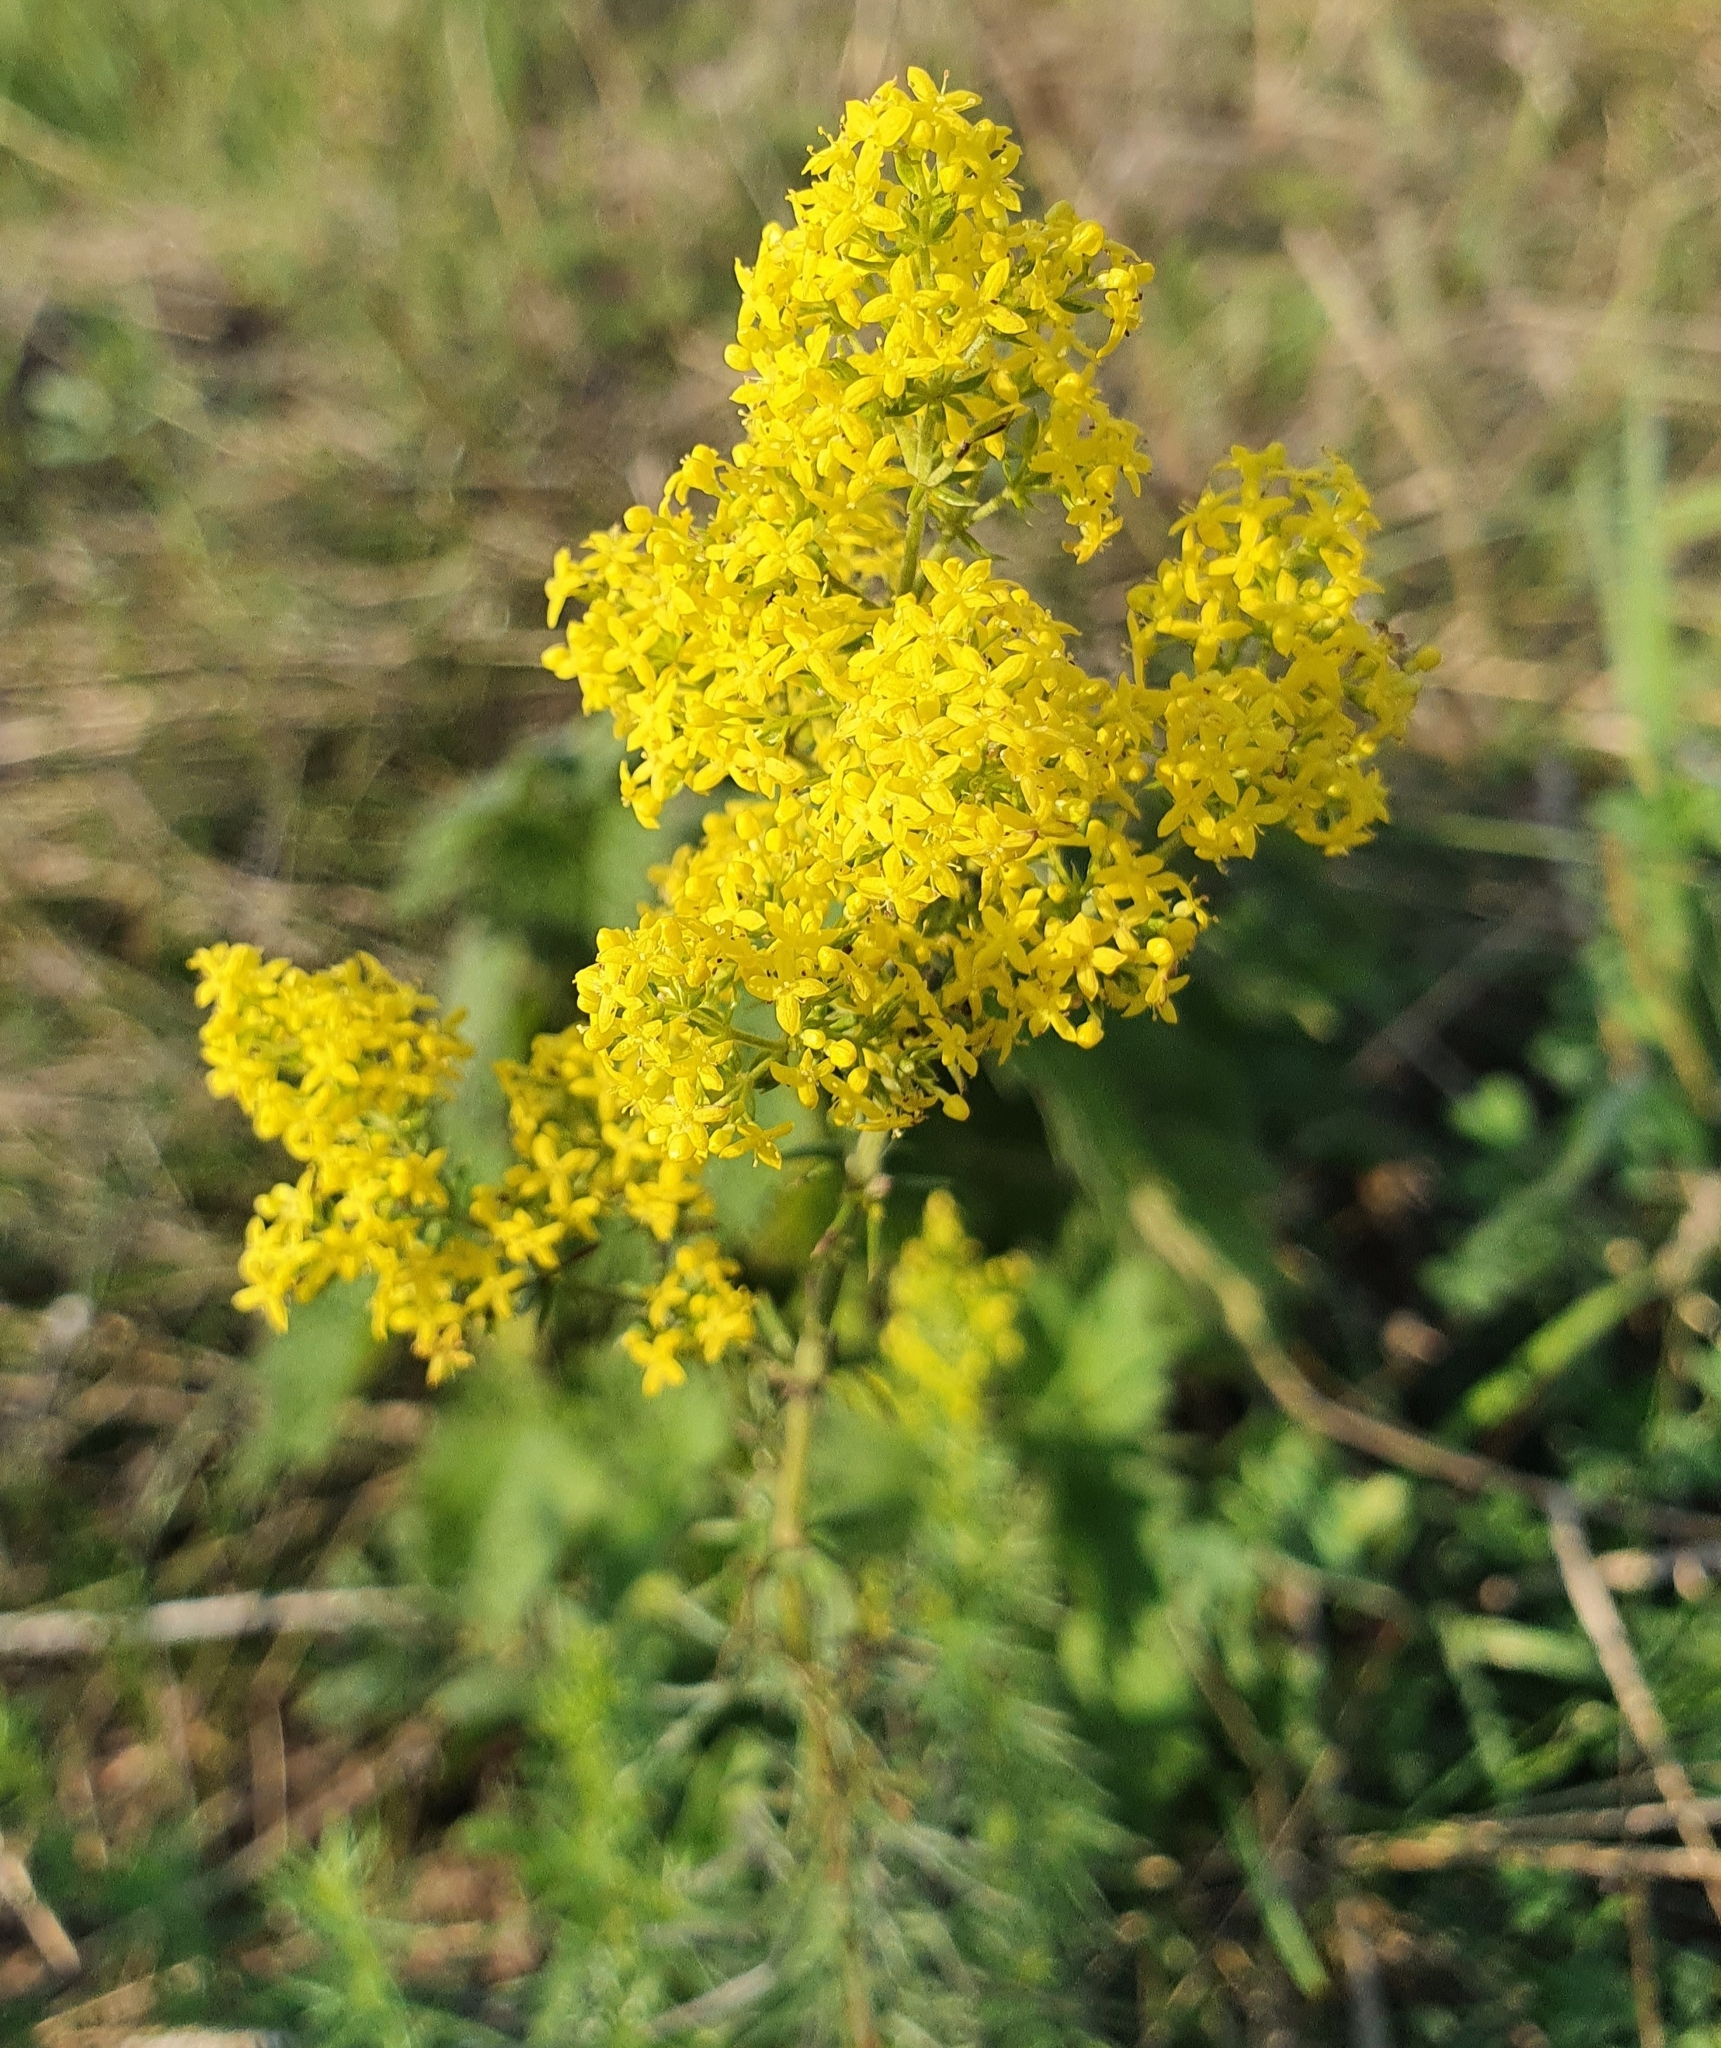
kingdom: Plantae
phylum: Tracheophyta
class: Magnoliopsida
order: Gentianales
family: Rubiaceae
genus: Galium
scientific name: Galium verum
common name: Lady's bedstraw
